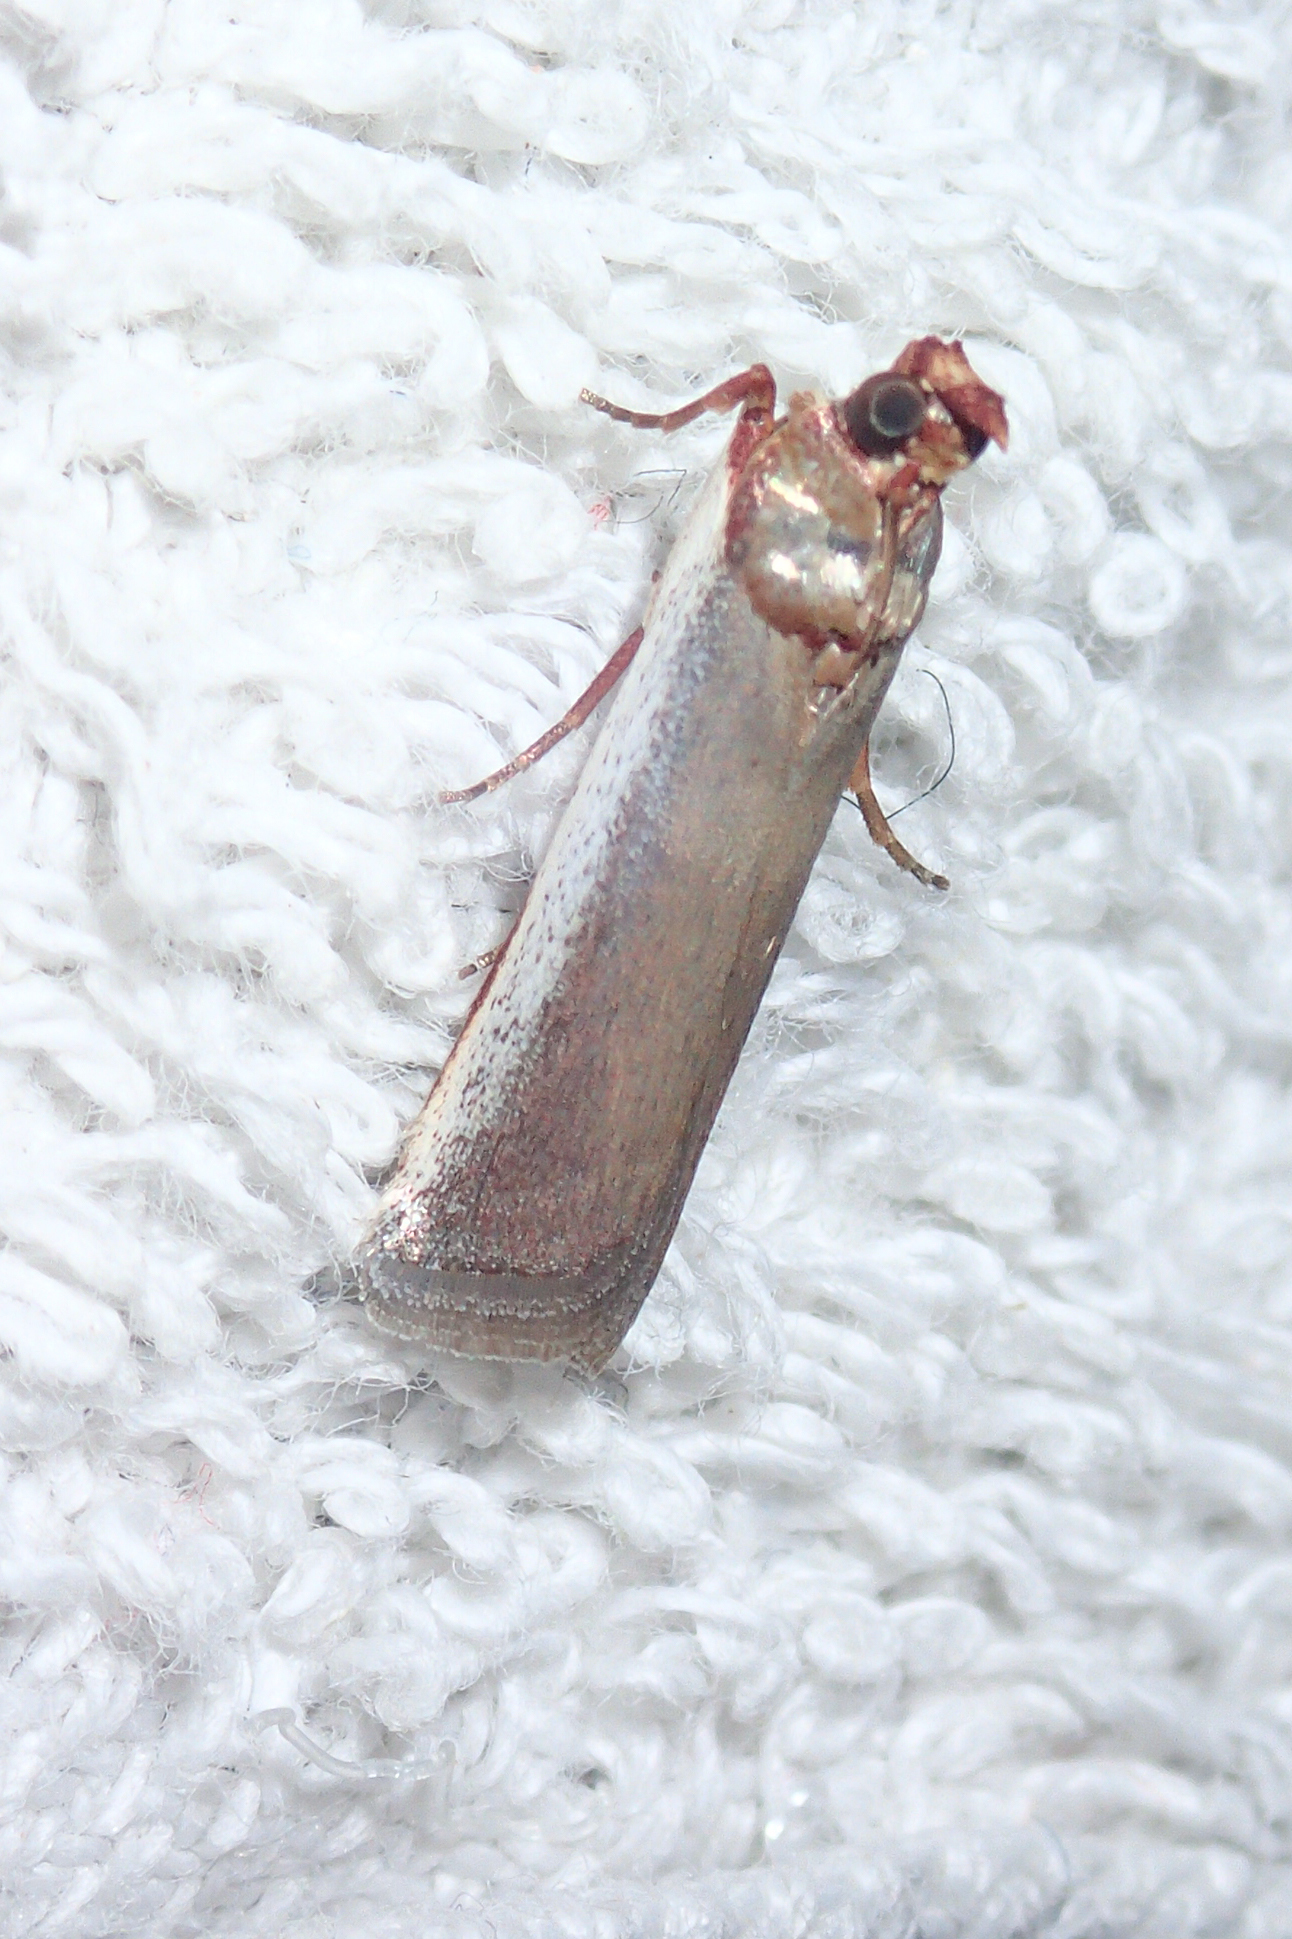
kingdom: Animalia
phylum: Arthropoda
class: Insecta
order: Lepidoptera
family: Pyralidae
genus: Sciota
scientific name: Sciota Denticera divisella
